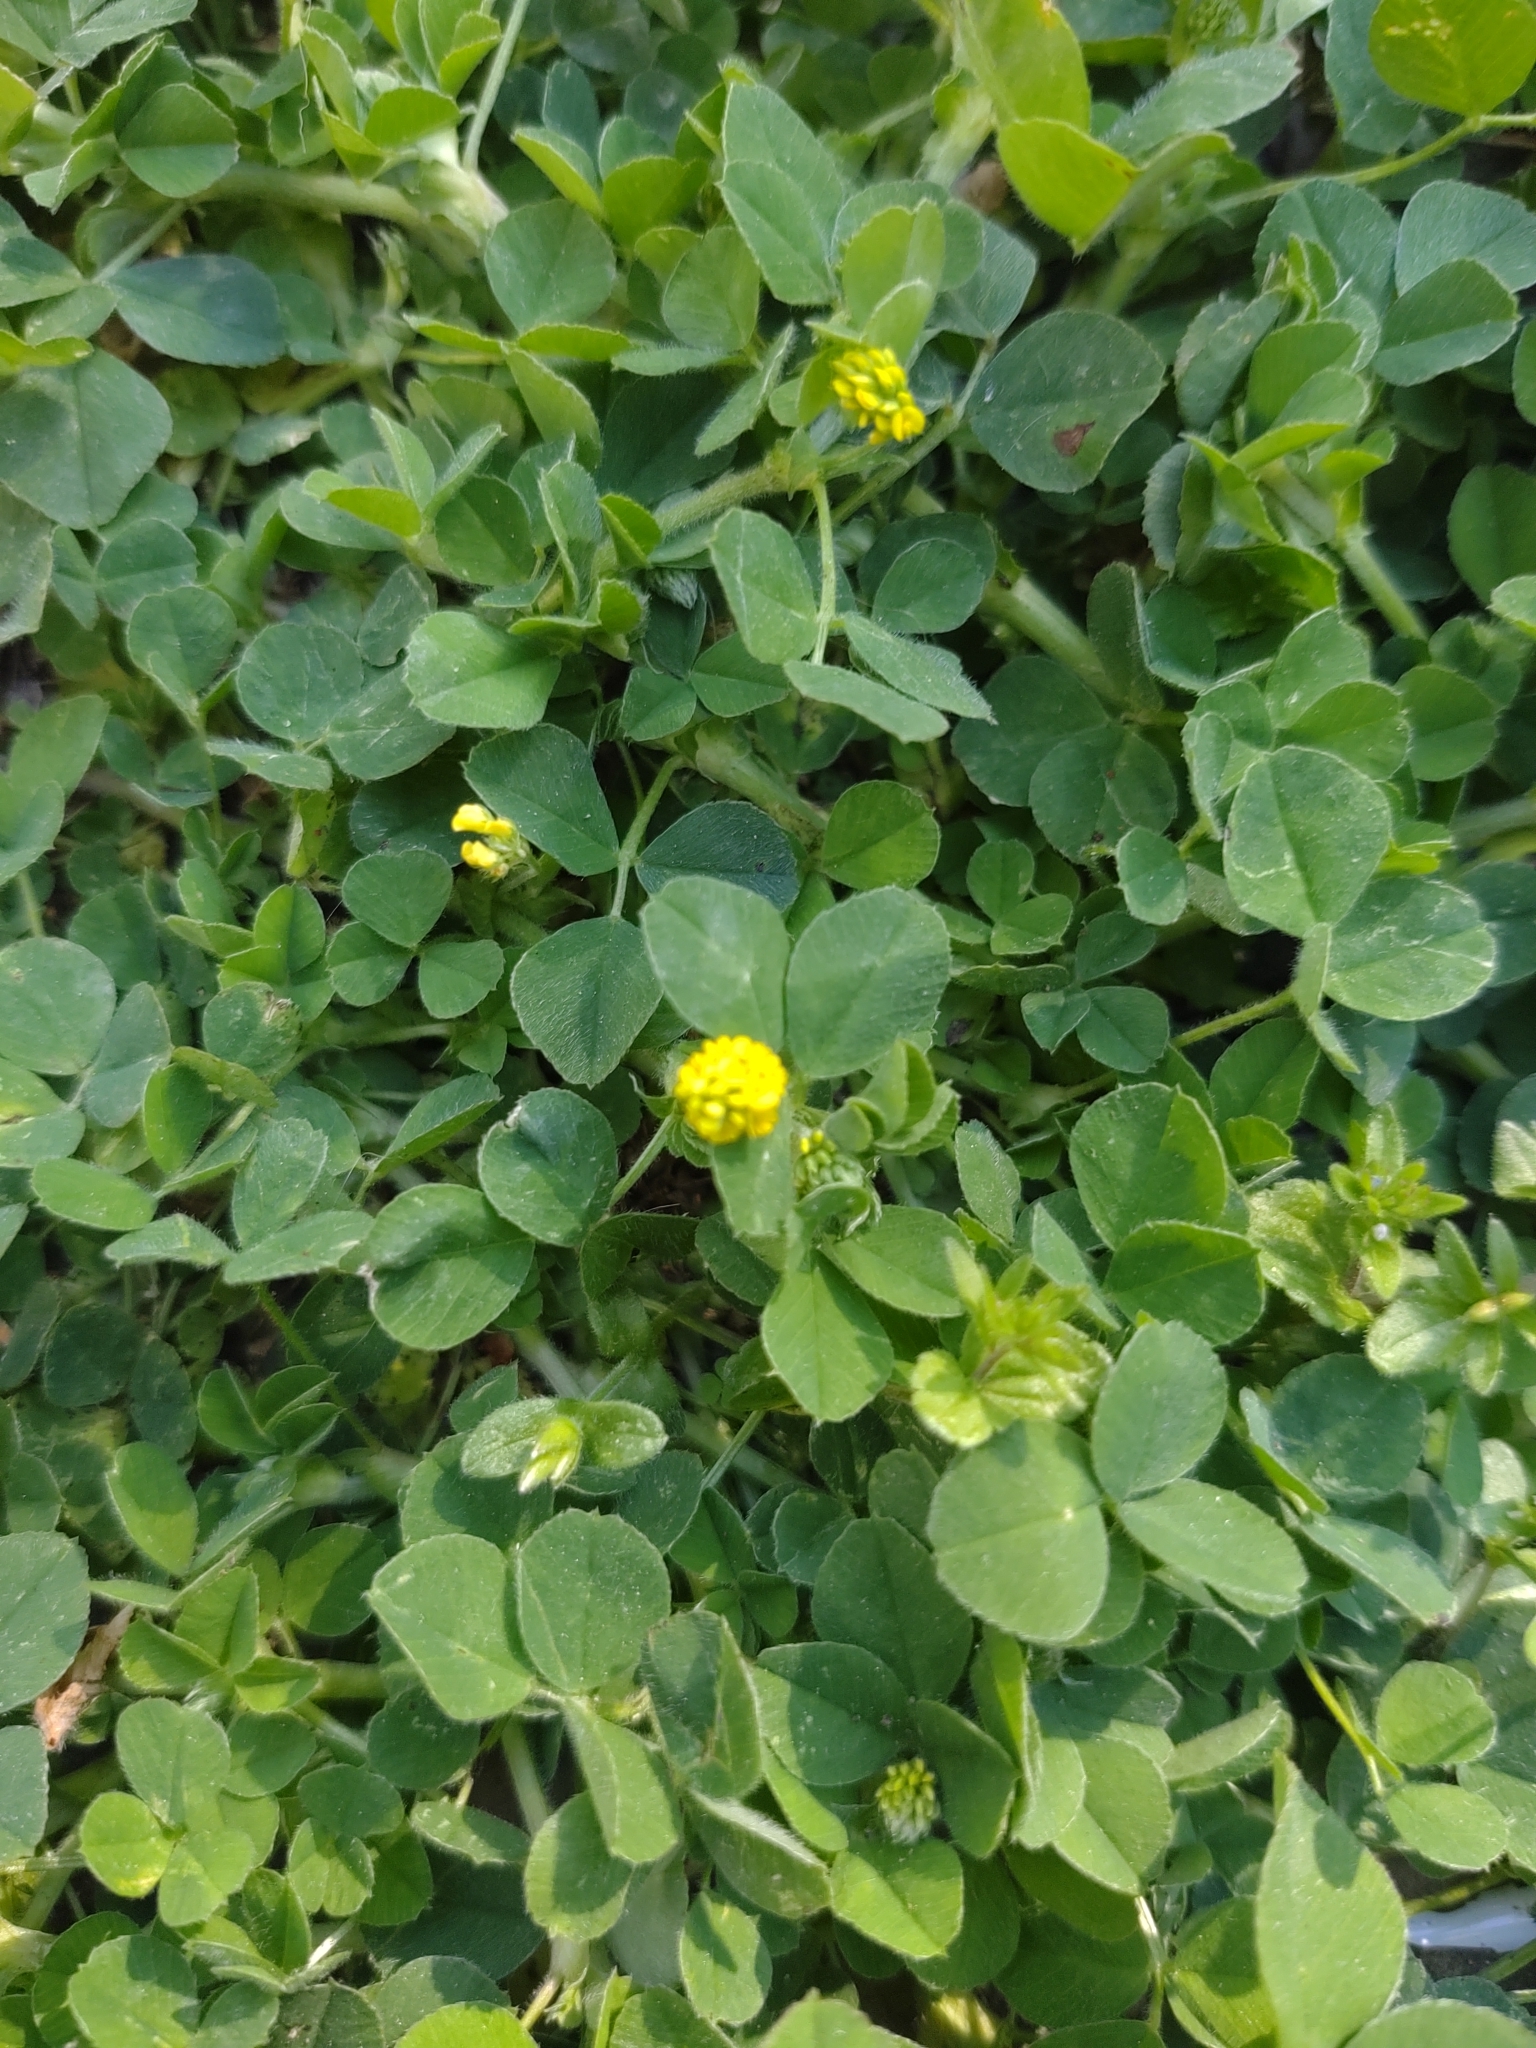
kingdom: Plantae
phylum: Tracheophyta
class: Magnoliopsida
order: Fabales
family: Fabaceae
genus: Medicago
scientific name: Medicago lupulina
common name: Black medick
